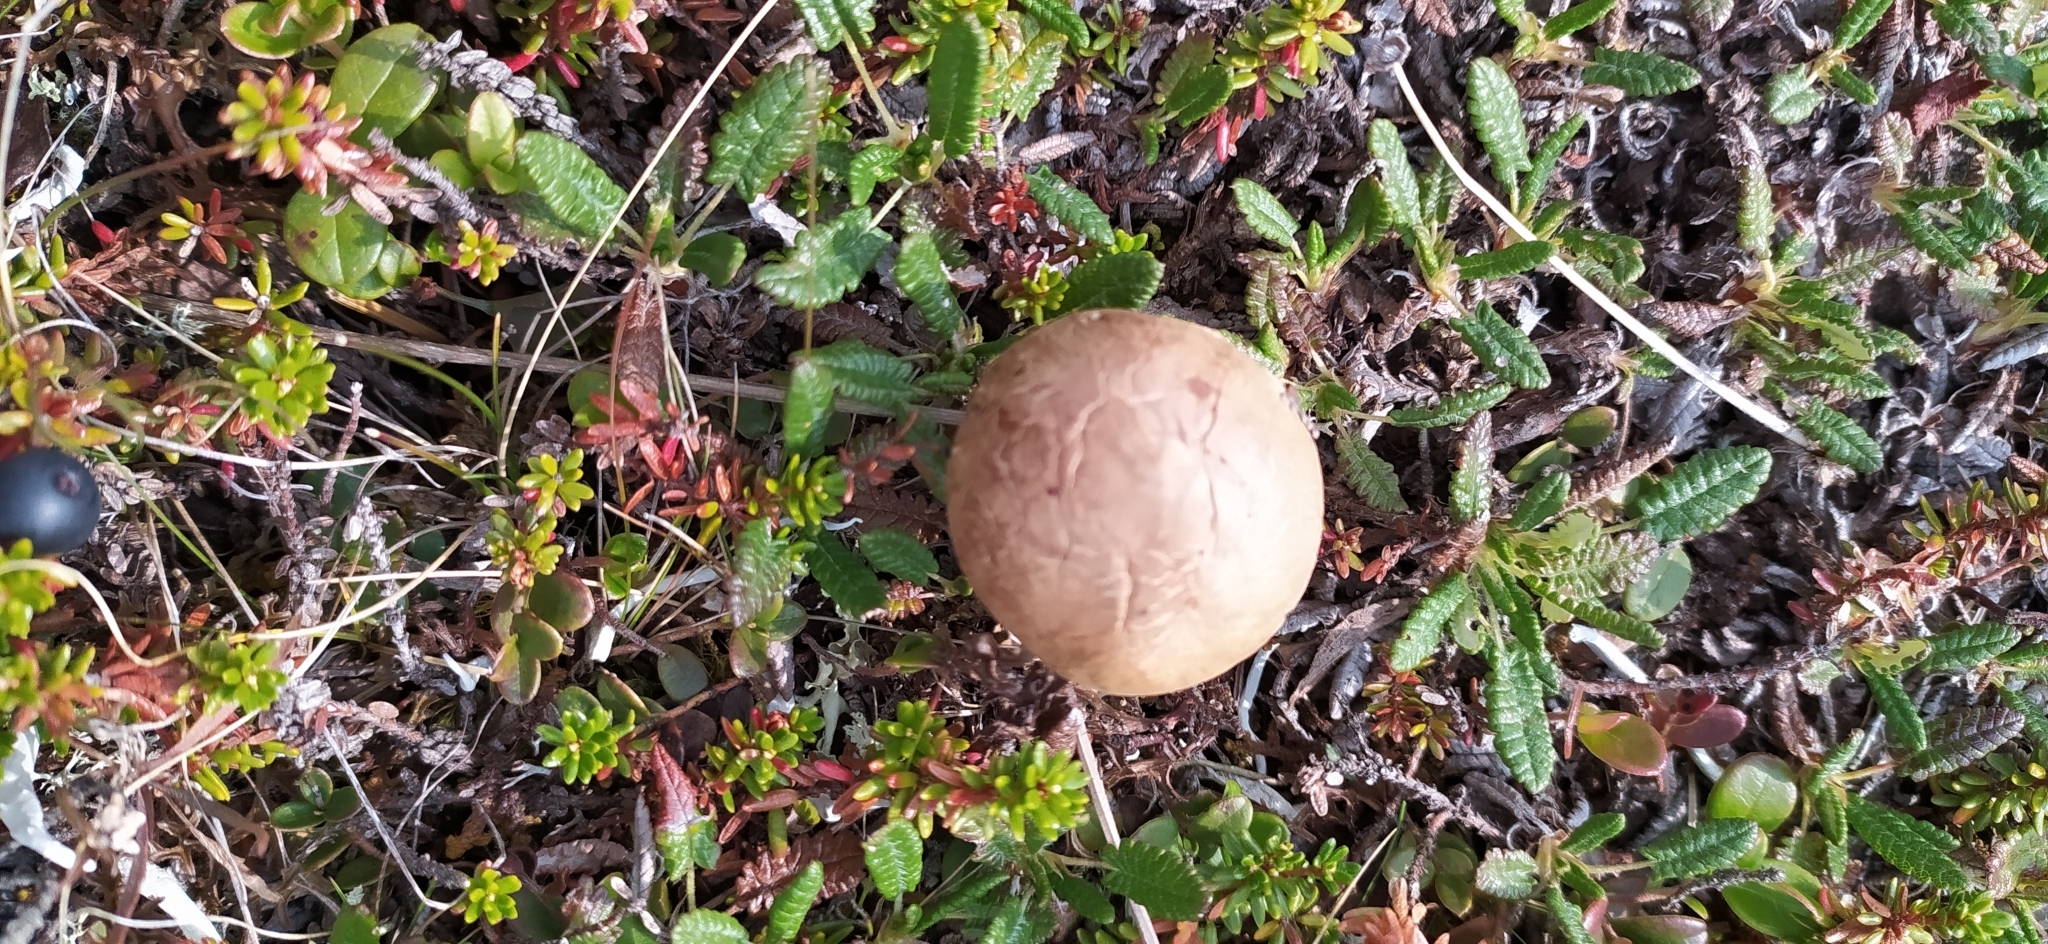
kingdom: Fungi
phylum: Basidiomycota
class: Agaricomycetes
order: Boletales
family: Boletaceae
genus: Leccinum
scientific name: Leccinum aurantiacum
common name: Orange bolete
